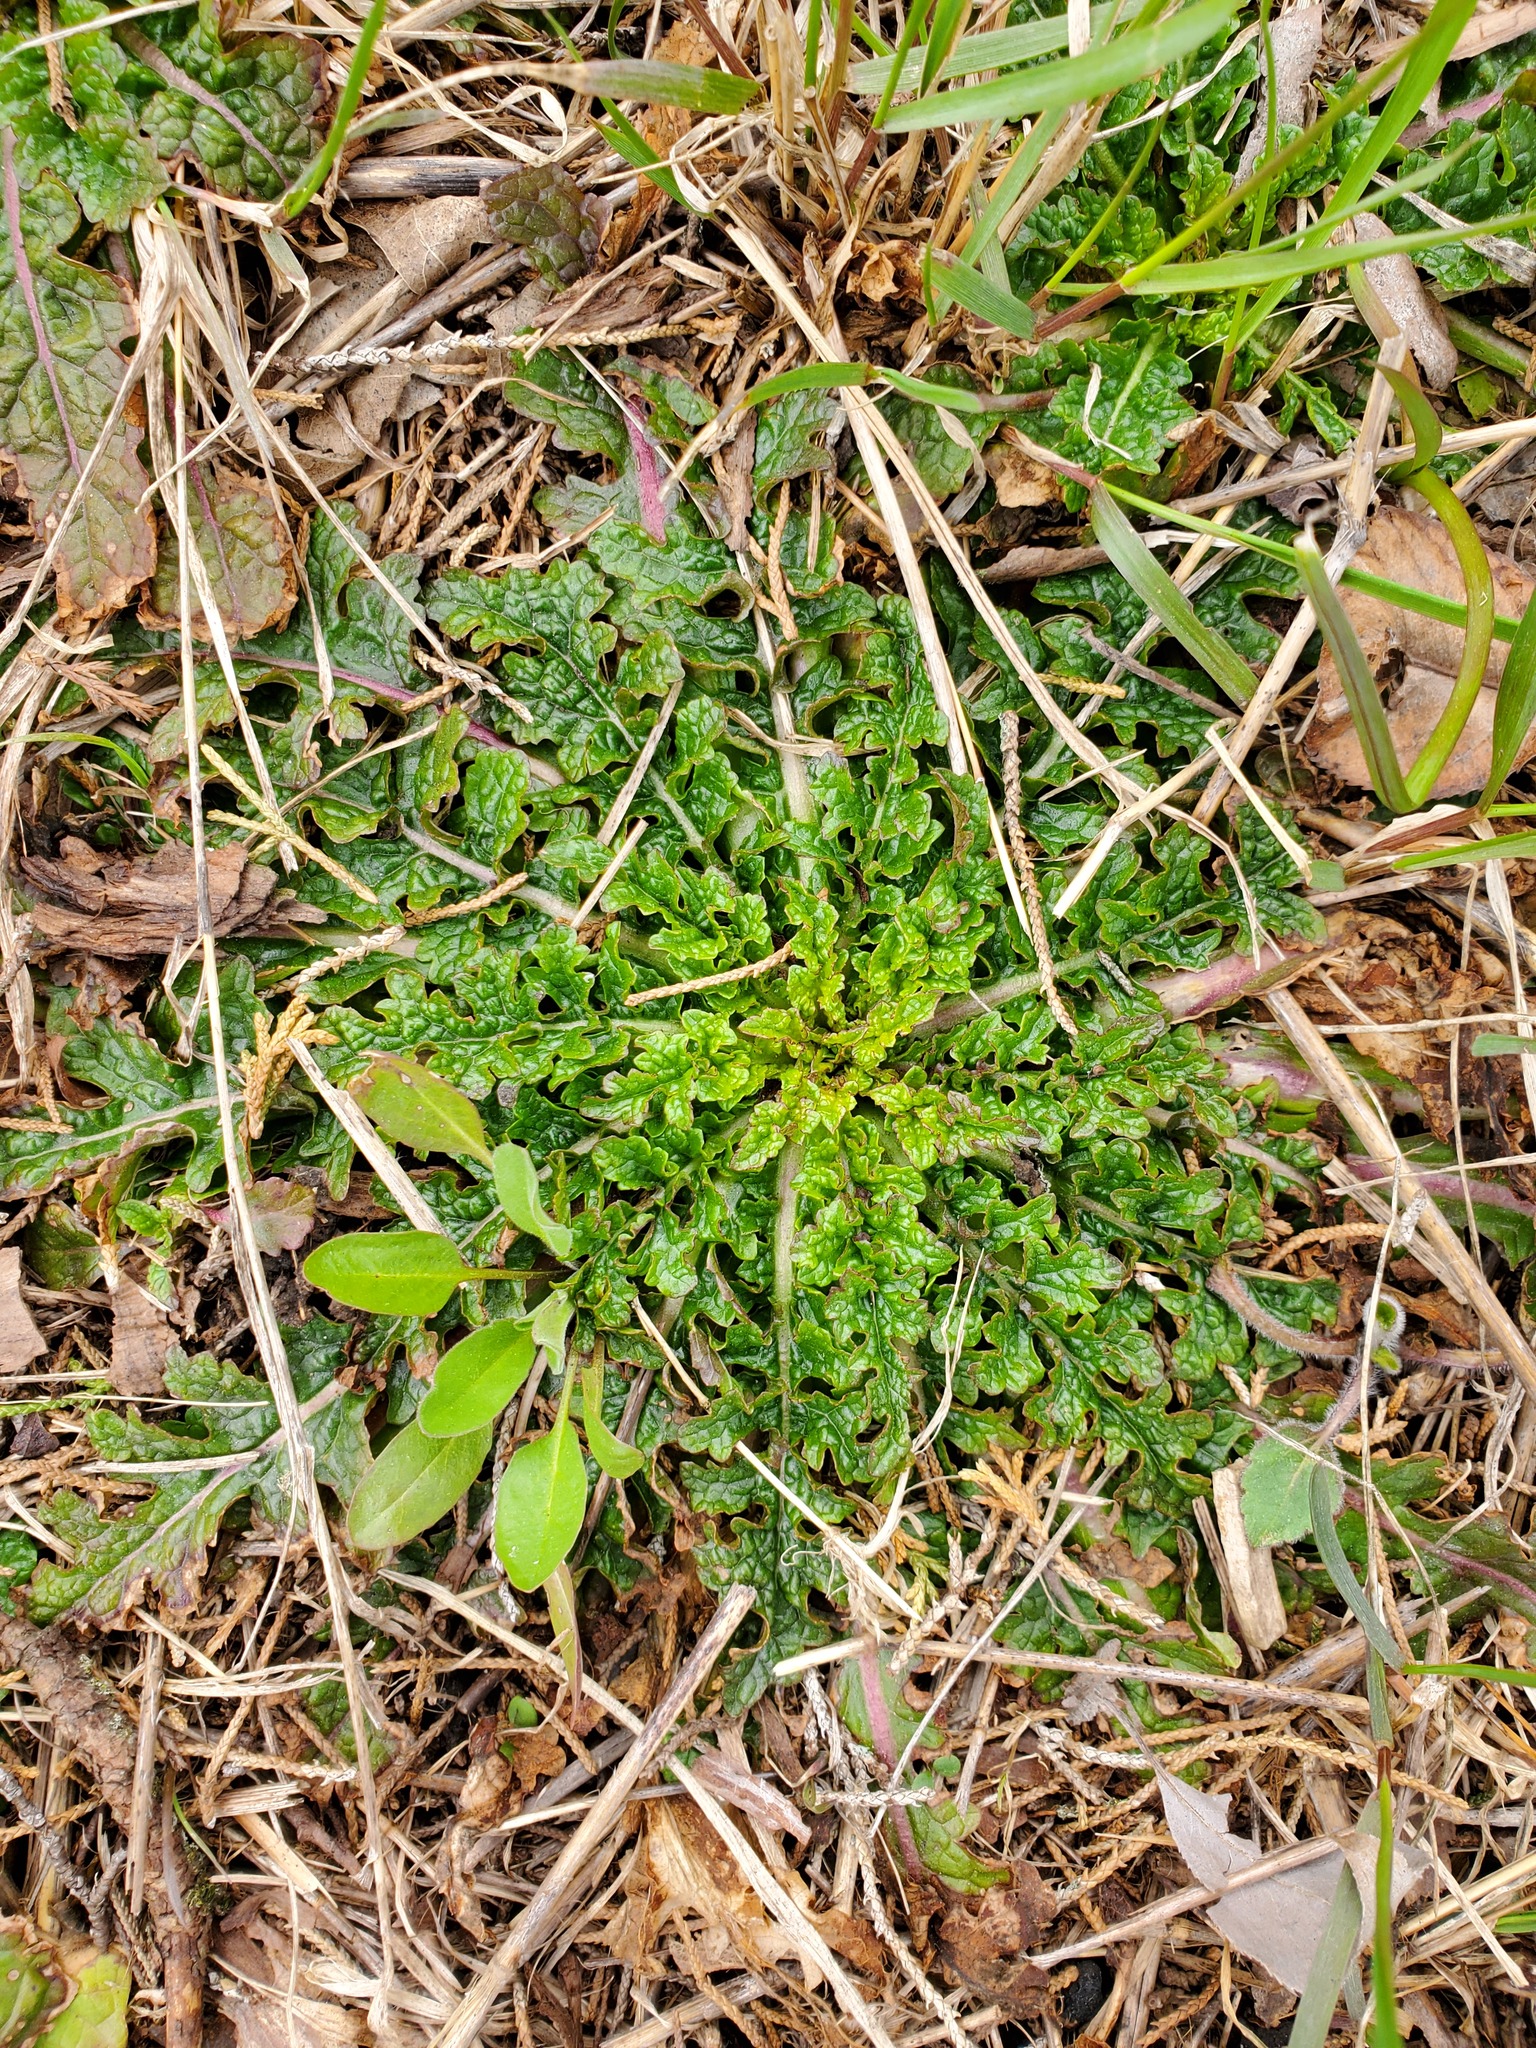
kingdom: Plantae
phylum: Tracheophyta
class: Magnoliopsida
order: Lamiales
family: Scrophulariaceae
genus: Verbascum
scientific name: Verbascum blattaria
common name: Moth mullein
